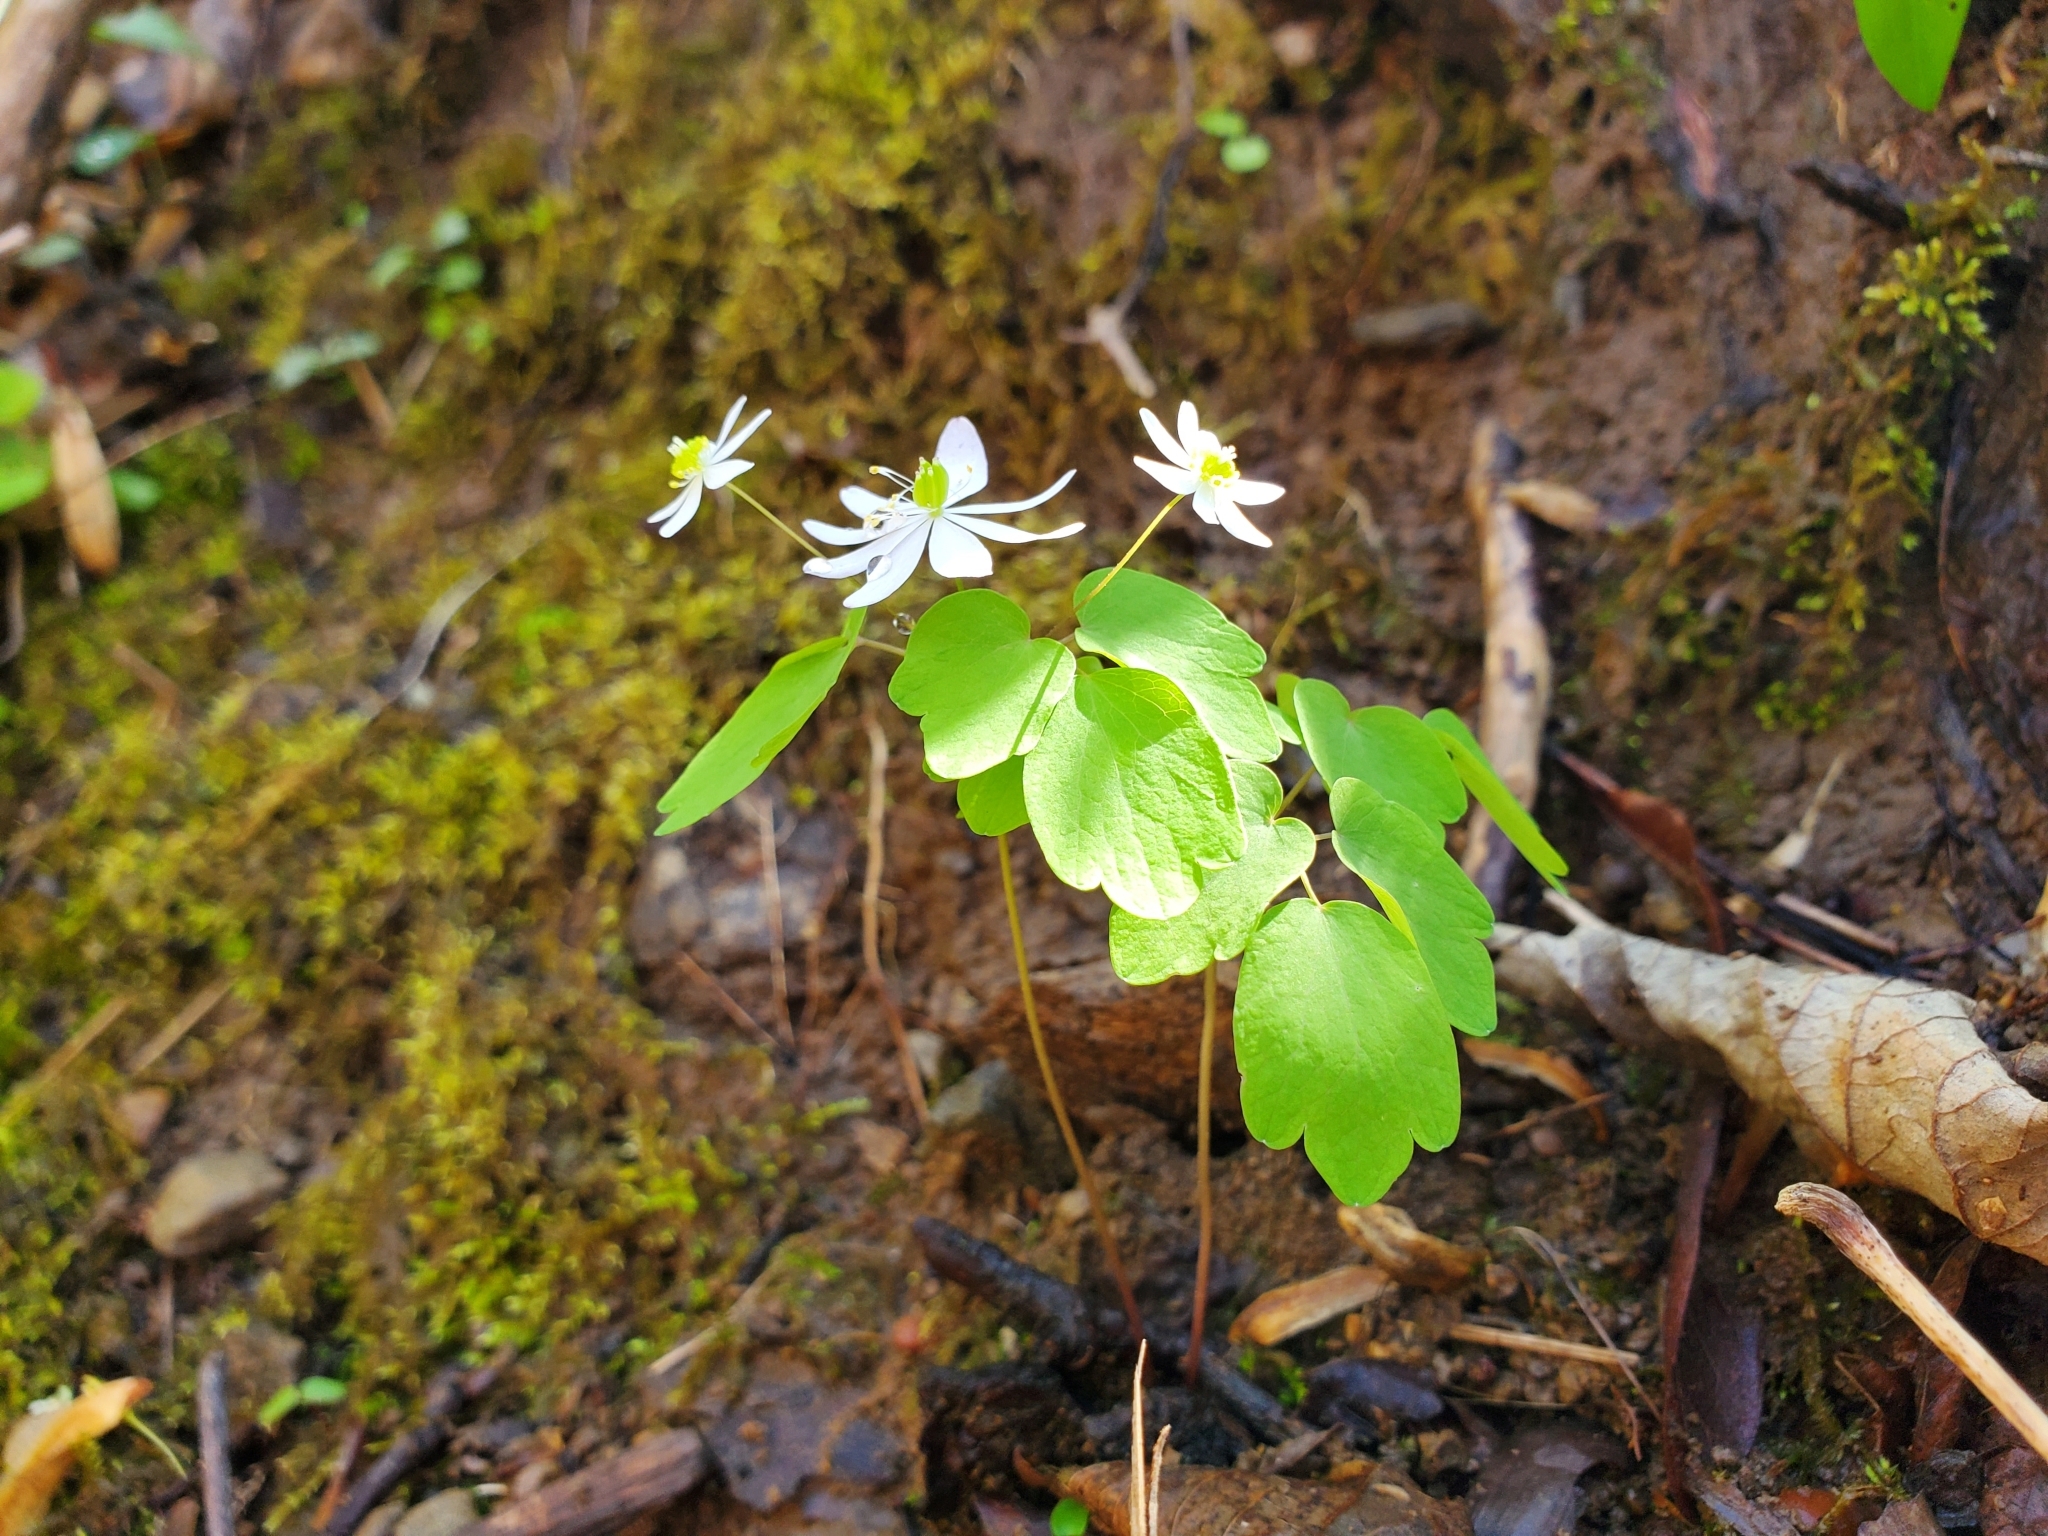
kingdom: Plantae
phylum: Tracheophyta
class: Magnoliopsida
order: Ranunculales
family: Ranunculaceae
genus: Thalictrum
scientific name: Thalictrum thalictroides
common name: Rue-anemone
